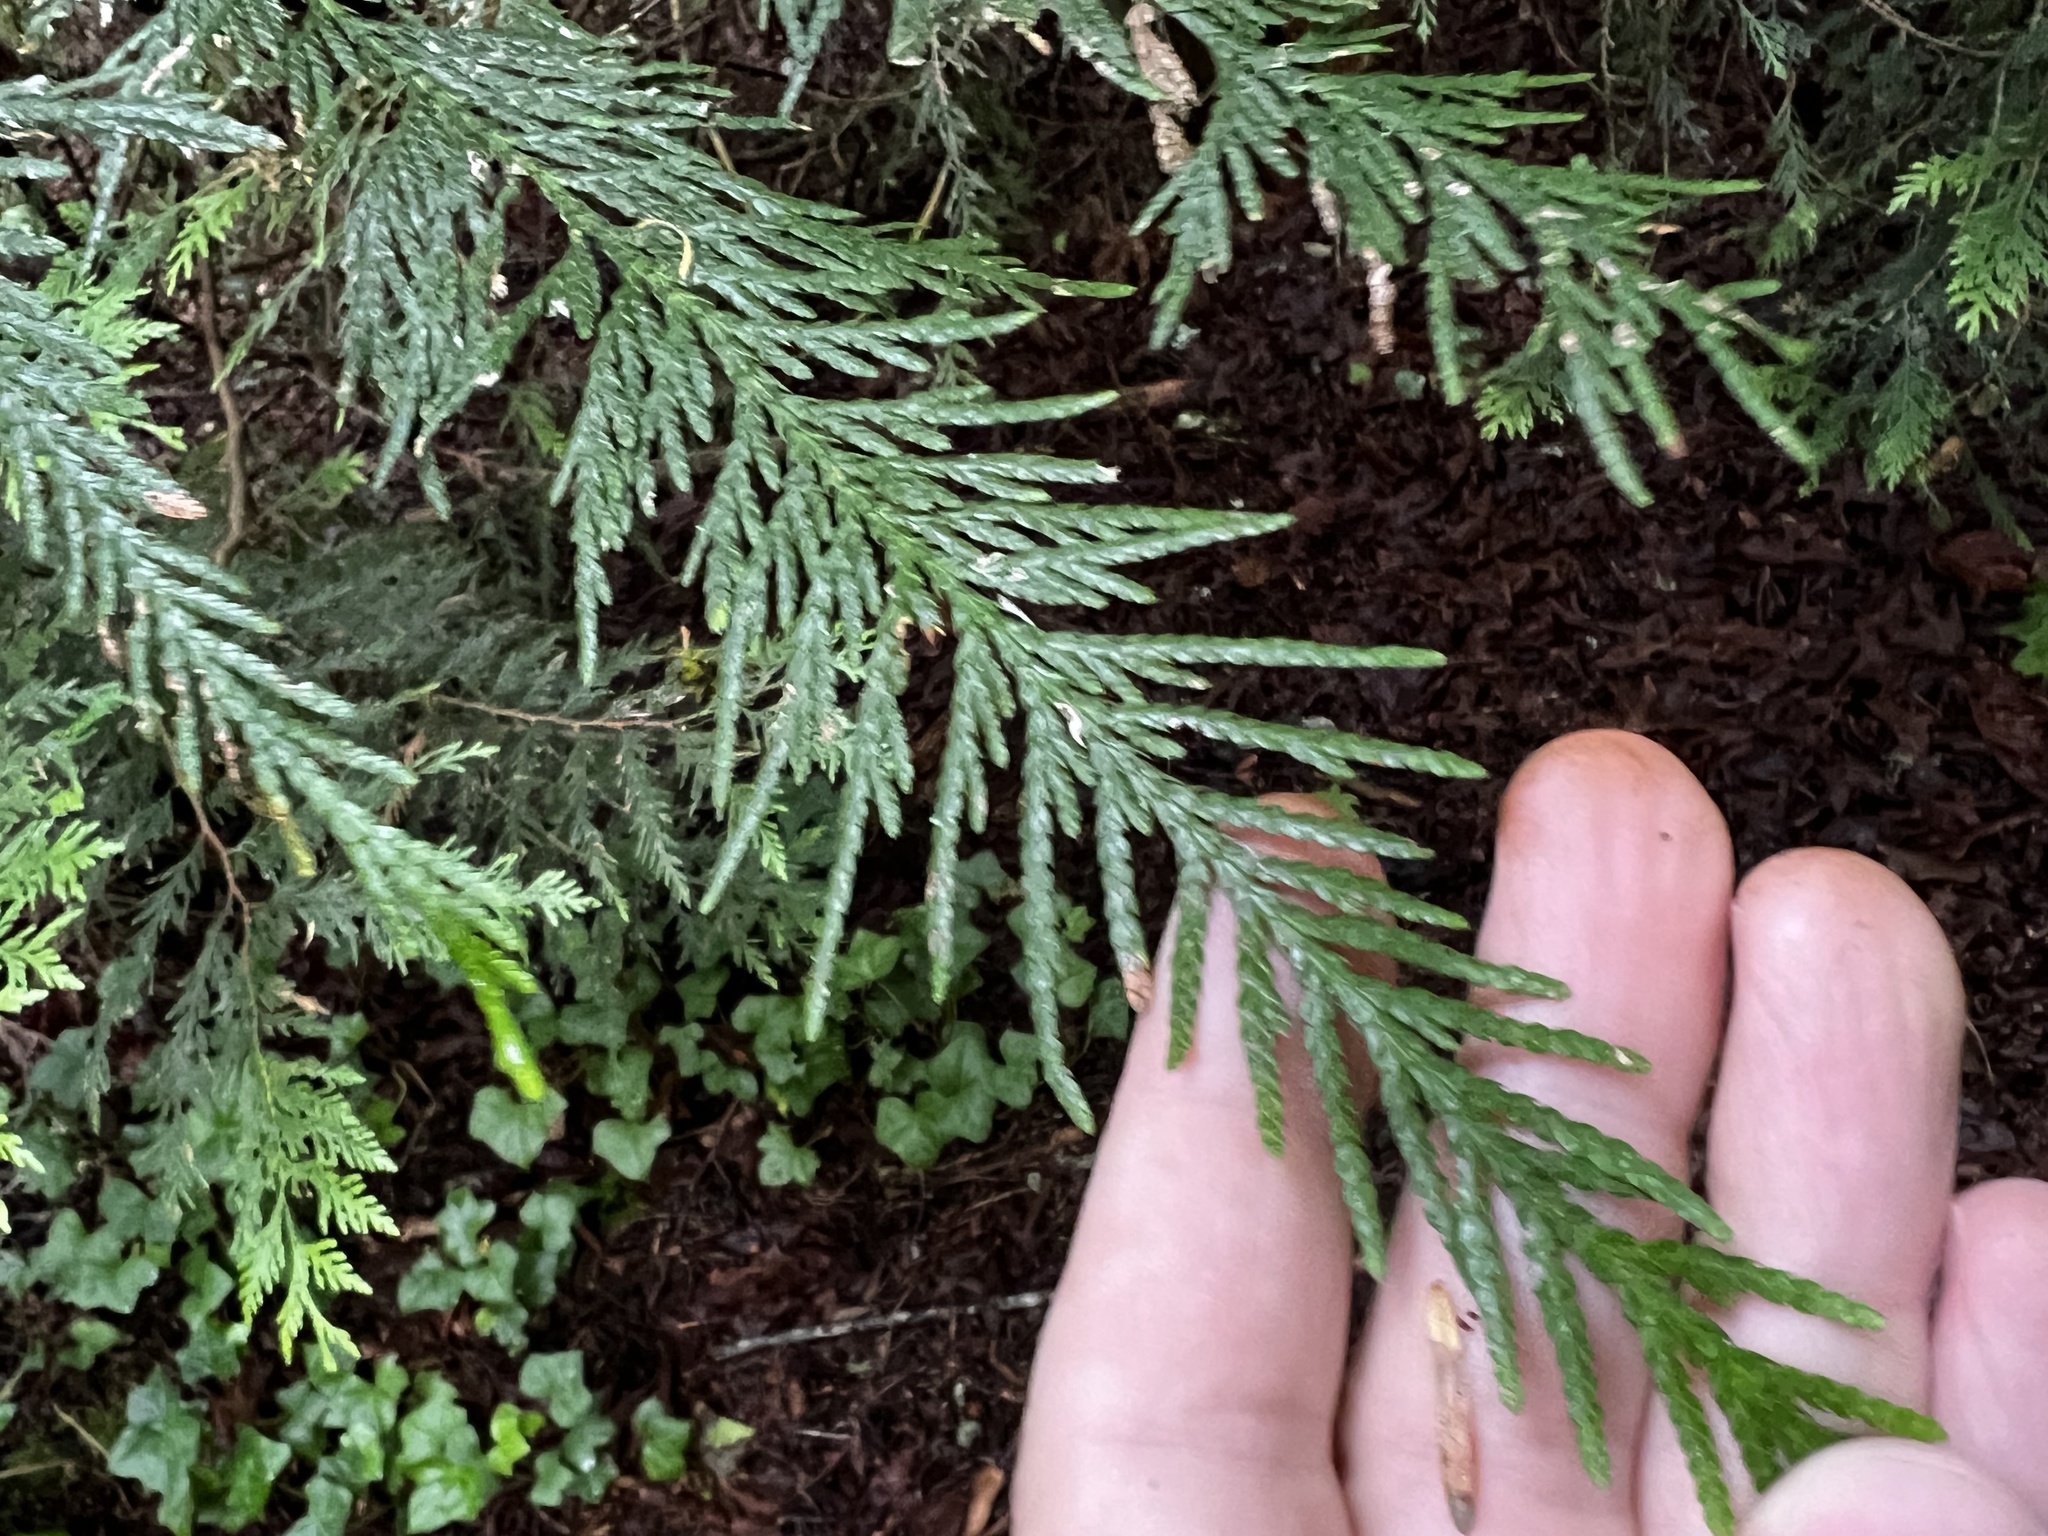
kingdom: Plantae
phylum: Tracheophyta
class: Pinopsida
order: Pinales
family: Cupressaceae
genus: Thuja
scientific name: Thuja plicata
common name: Western red-cedar
